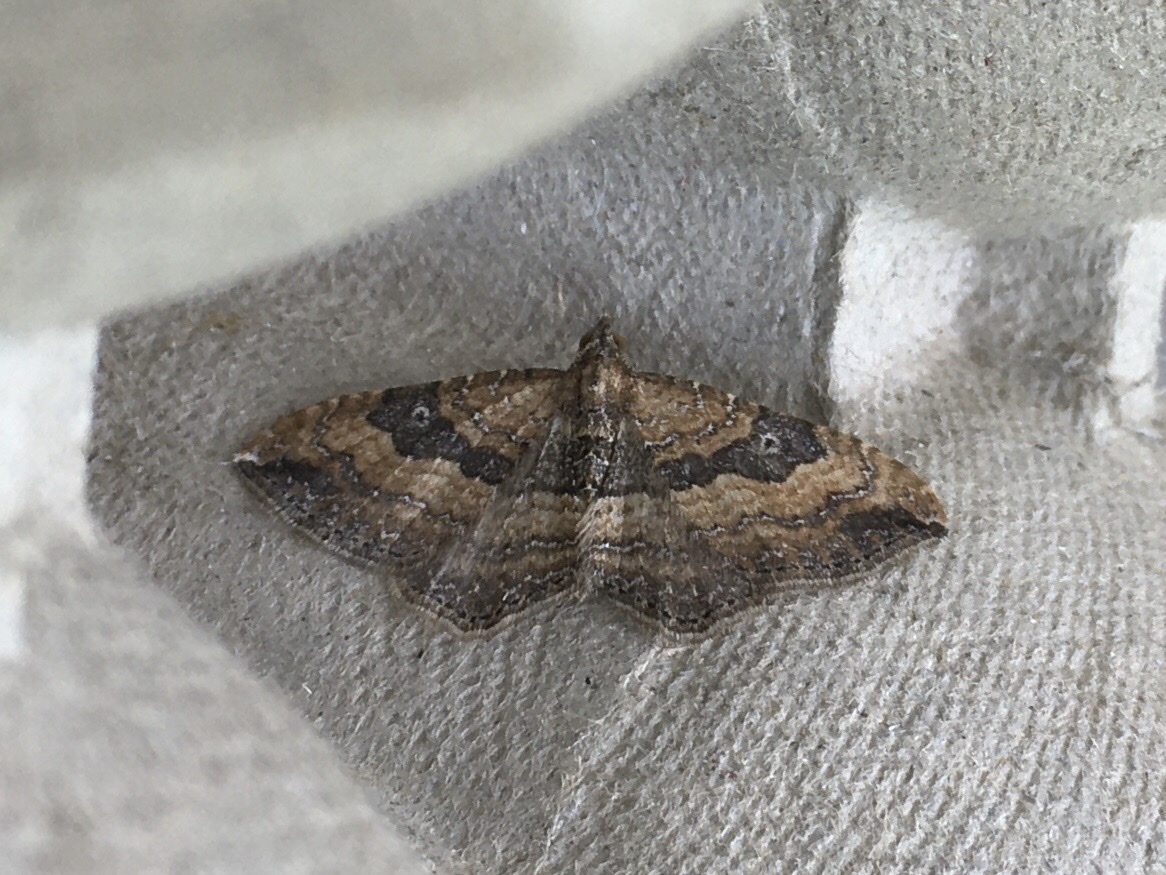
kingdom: Animalia
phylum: Arthropoda
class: Insecta
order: Lepidoptera
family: Geometridae
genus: Orthonama
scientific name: Orthonama obstipata
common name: The gem
